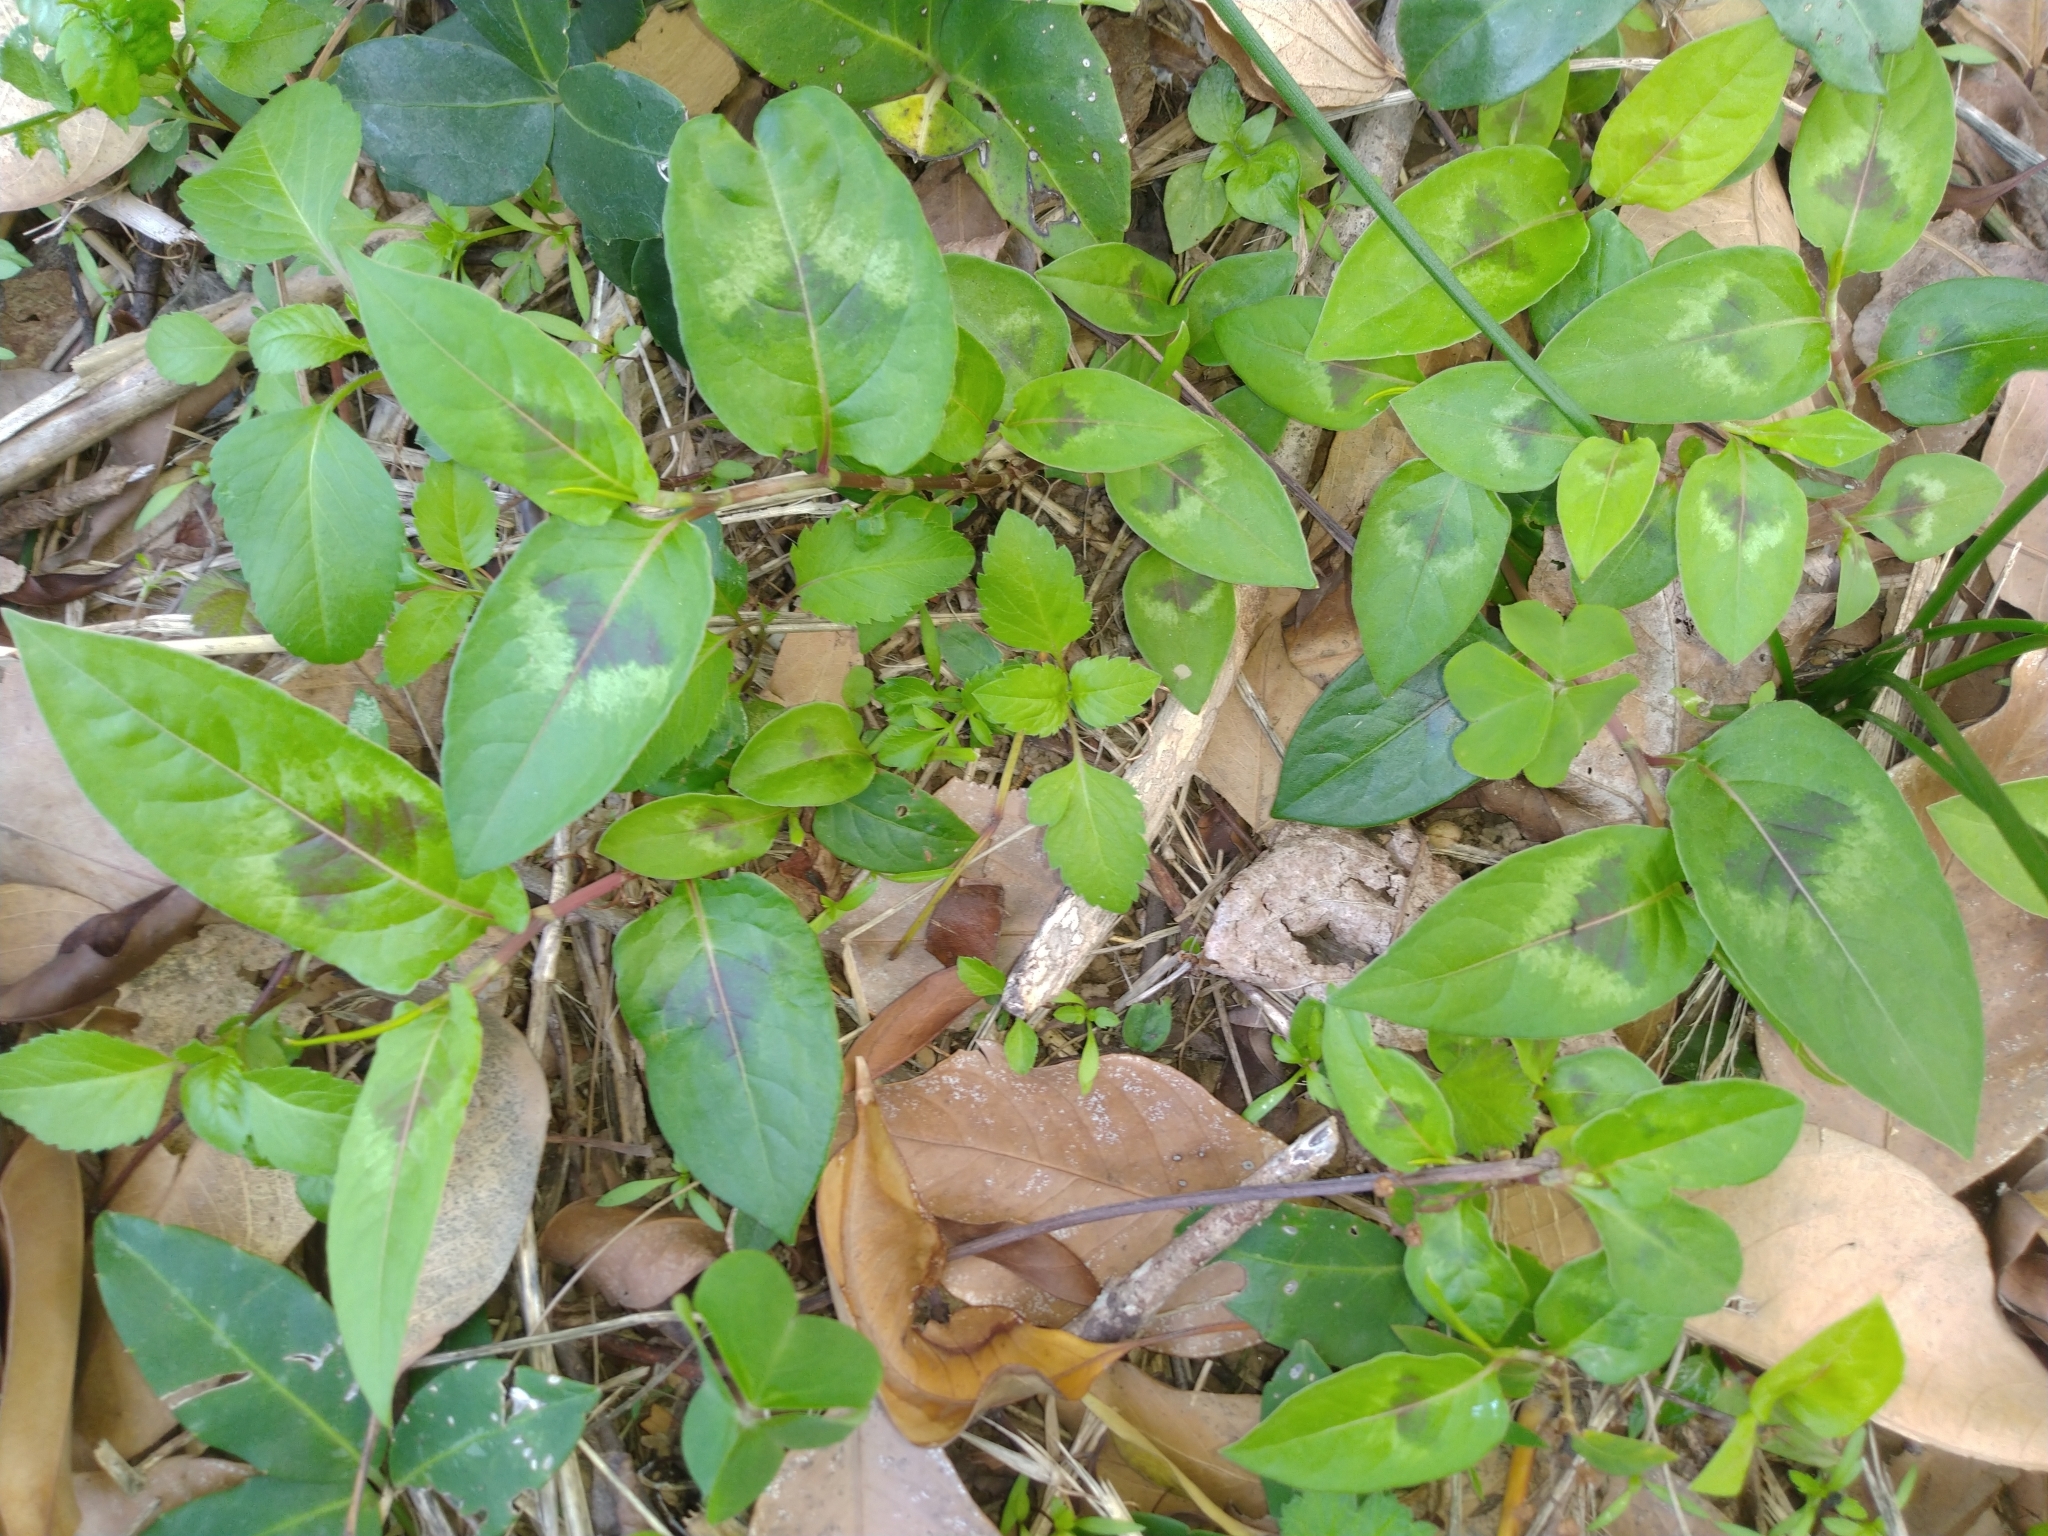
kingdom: Plantae
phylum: Tracheophyta
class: Magnoliopsida
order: Caryophyllales
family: Polygonaceae
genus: Persicaria
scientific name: Persicaria chinensis
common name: Chinese knotweed
